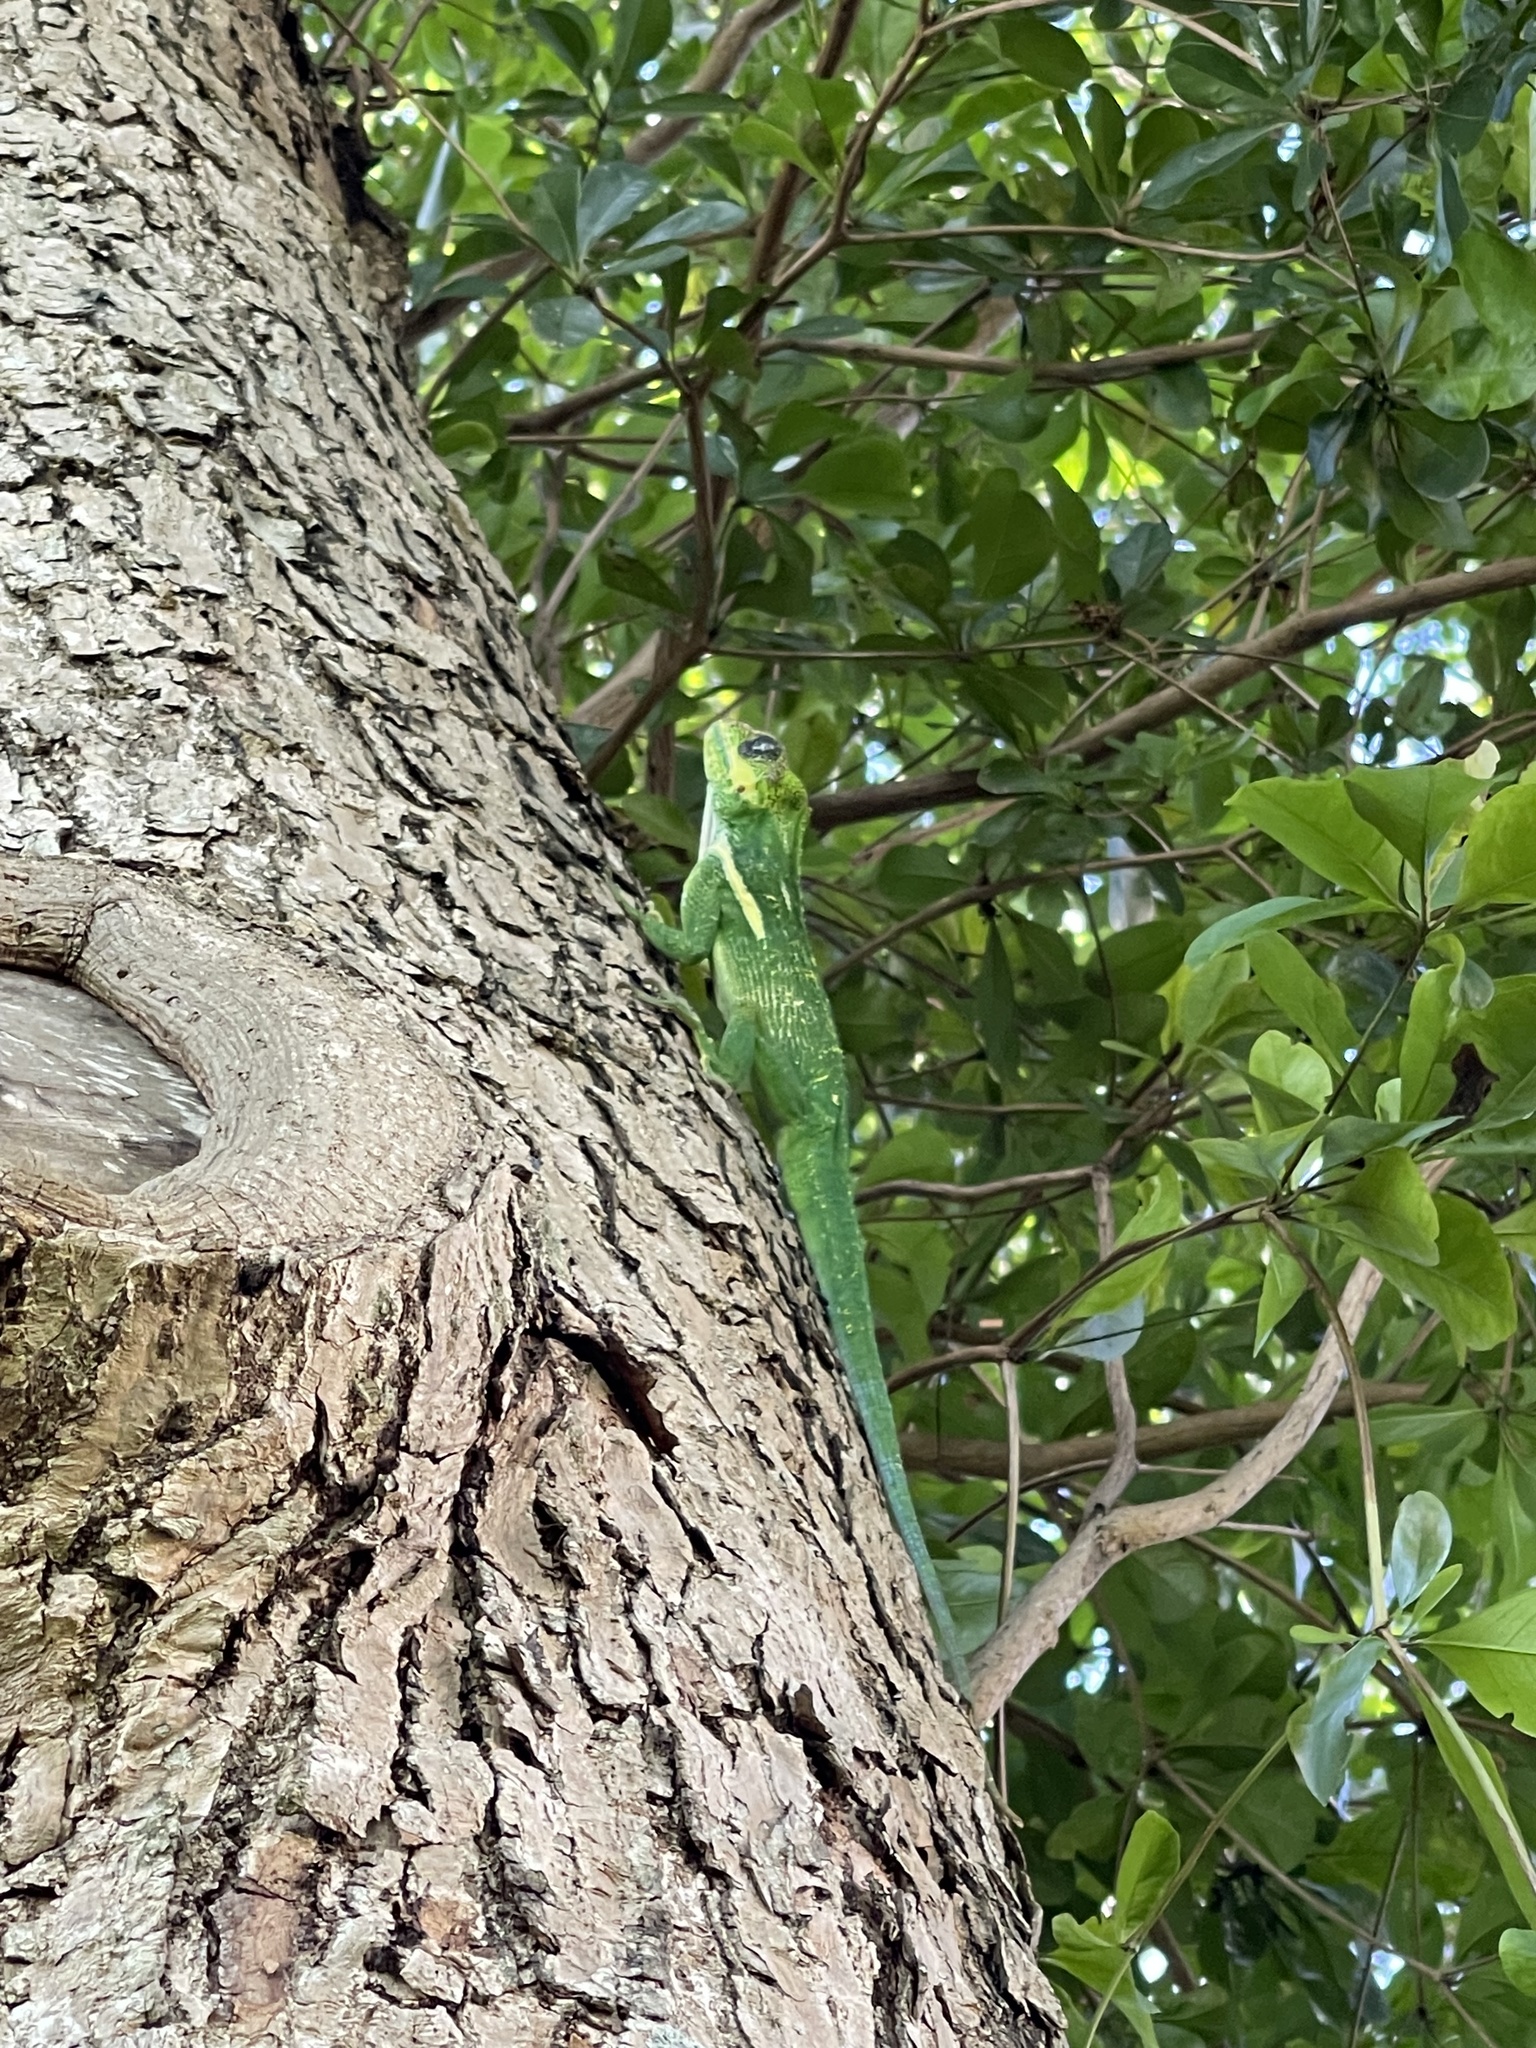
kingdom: Animalia
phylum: Chordata
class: Squamata
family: Dactyloidae
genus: Anolis
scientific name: Anolis equestris
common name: Knight anole
